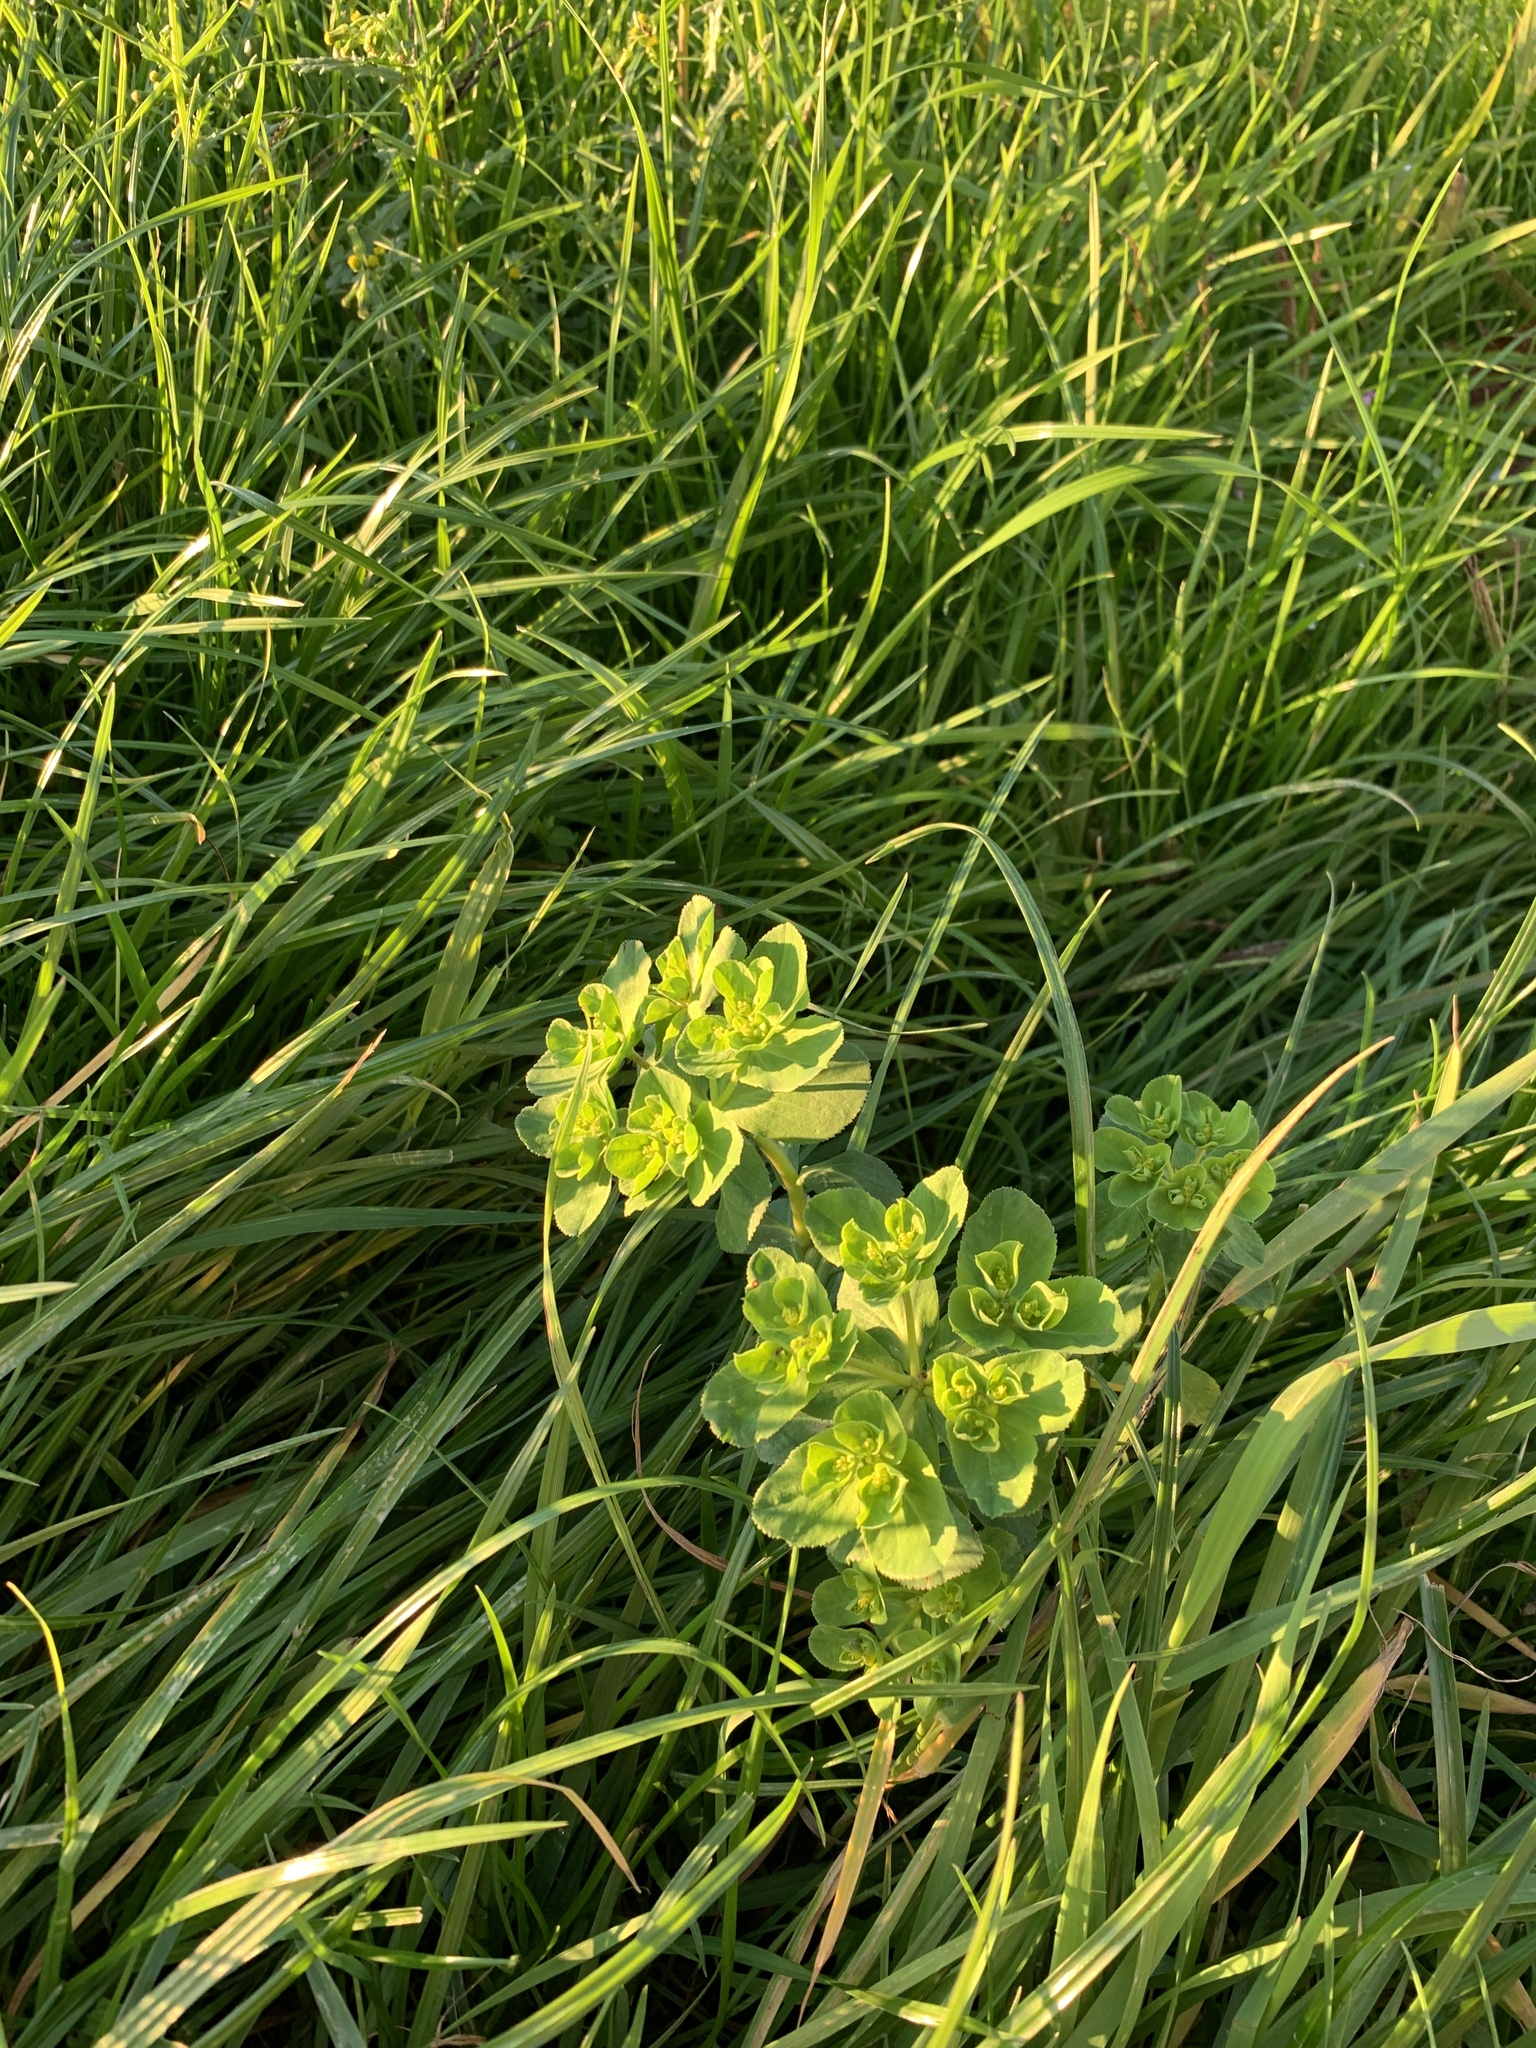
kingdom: Plantae
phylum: Tracheophyta
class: Magnoliopsida
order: Malpighiales
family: Euphorbiaceae
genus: Euphorbia
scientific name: Euphorbia helioscopia
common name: Sun spurge
